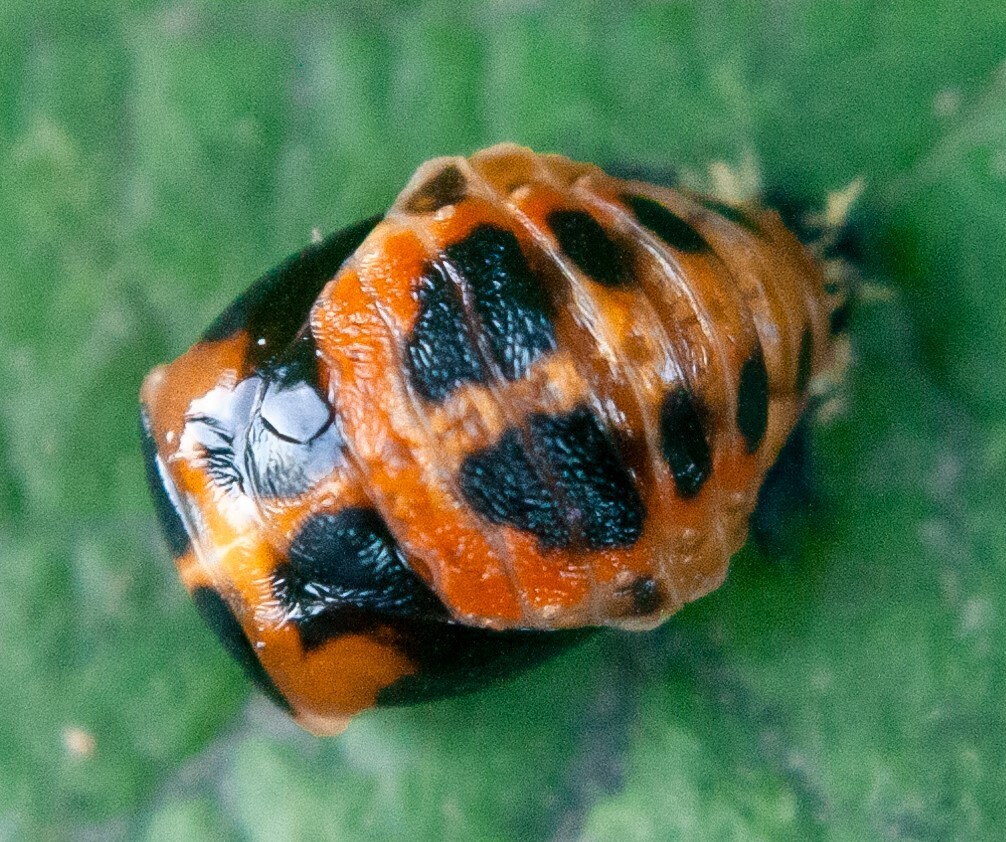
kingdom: Animalia
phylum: Arthropoda
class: Insecta
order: Coleoptera
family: Coccinellidae
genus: Harmonia
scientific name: Harmonia axyridis
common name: Harlequin ladybird
